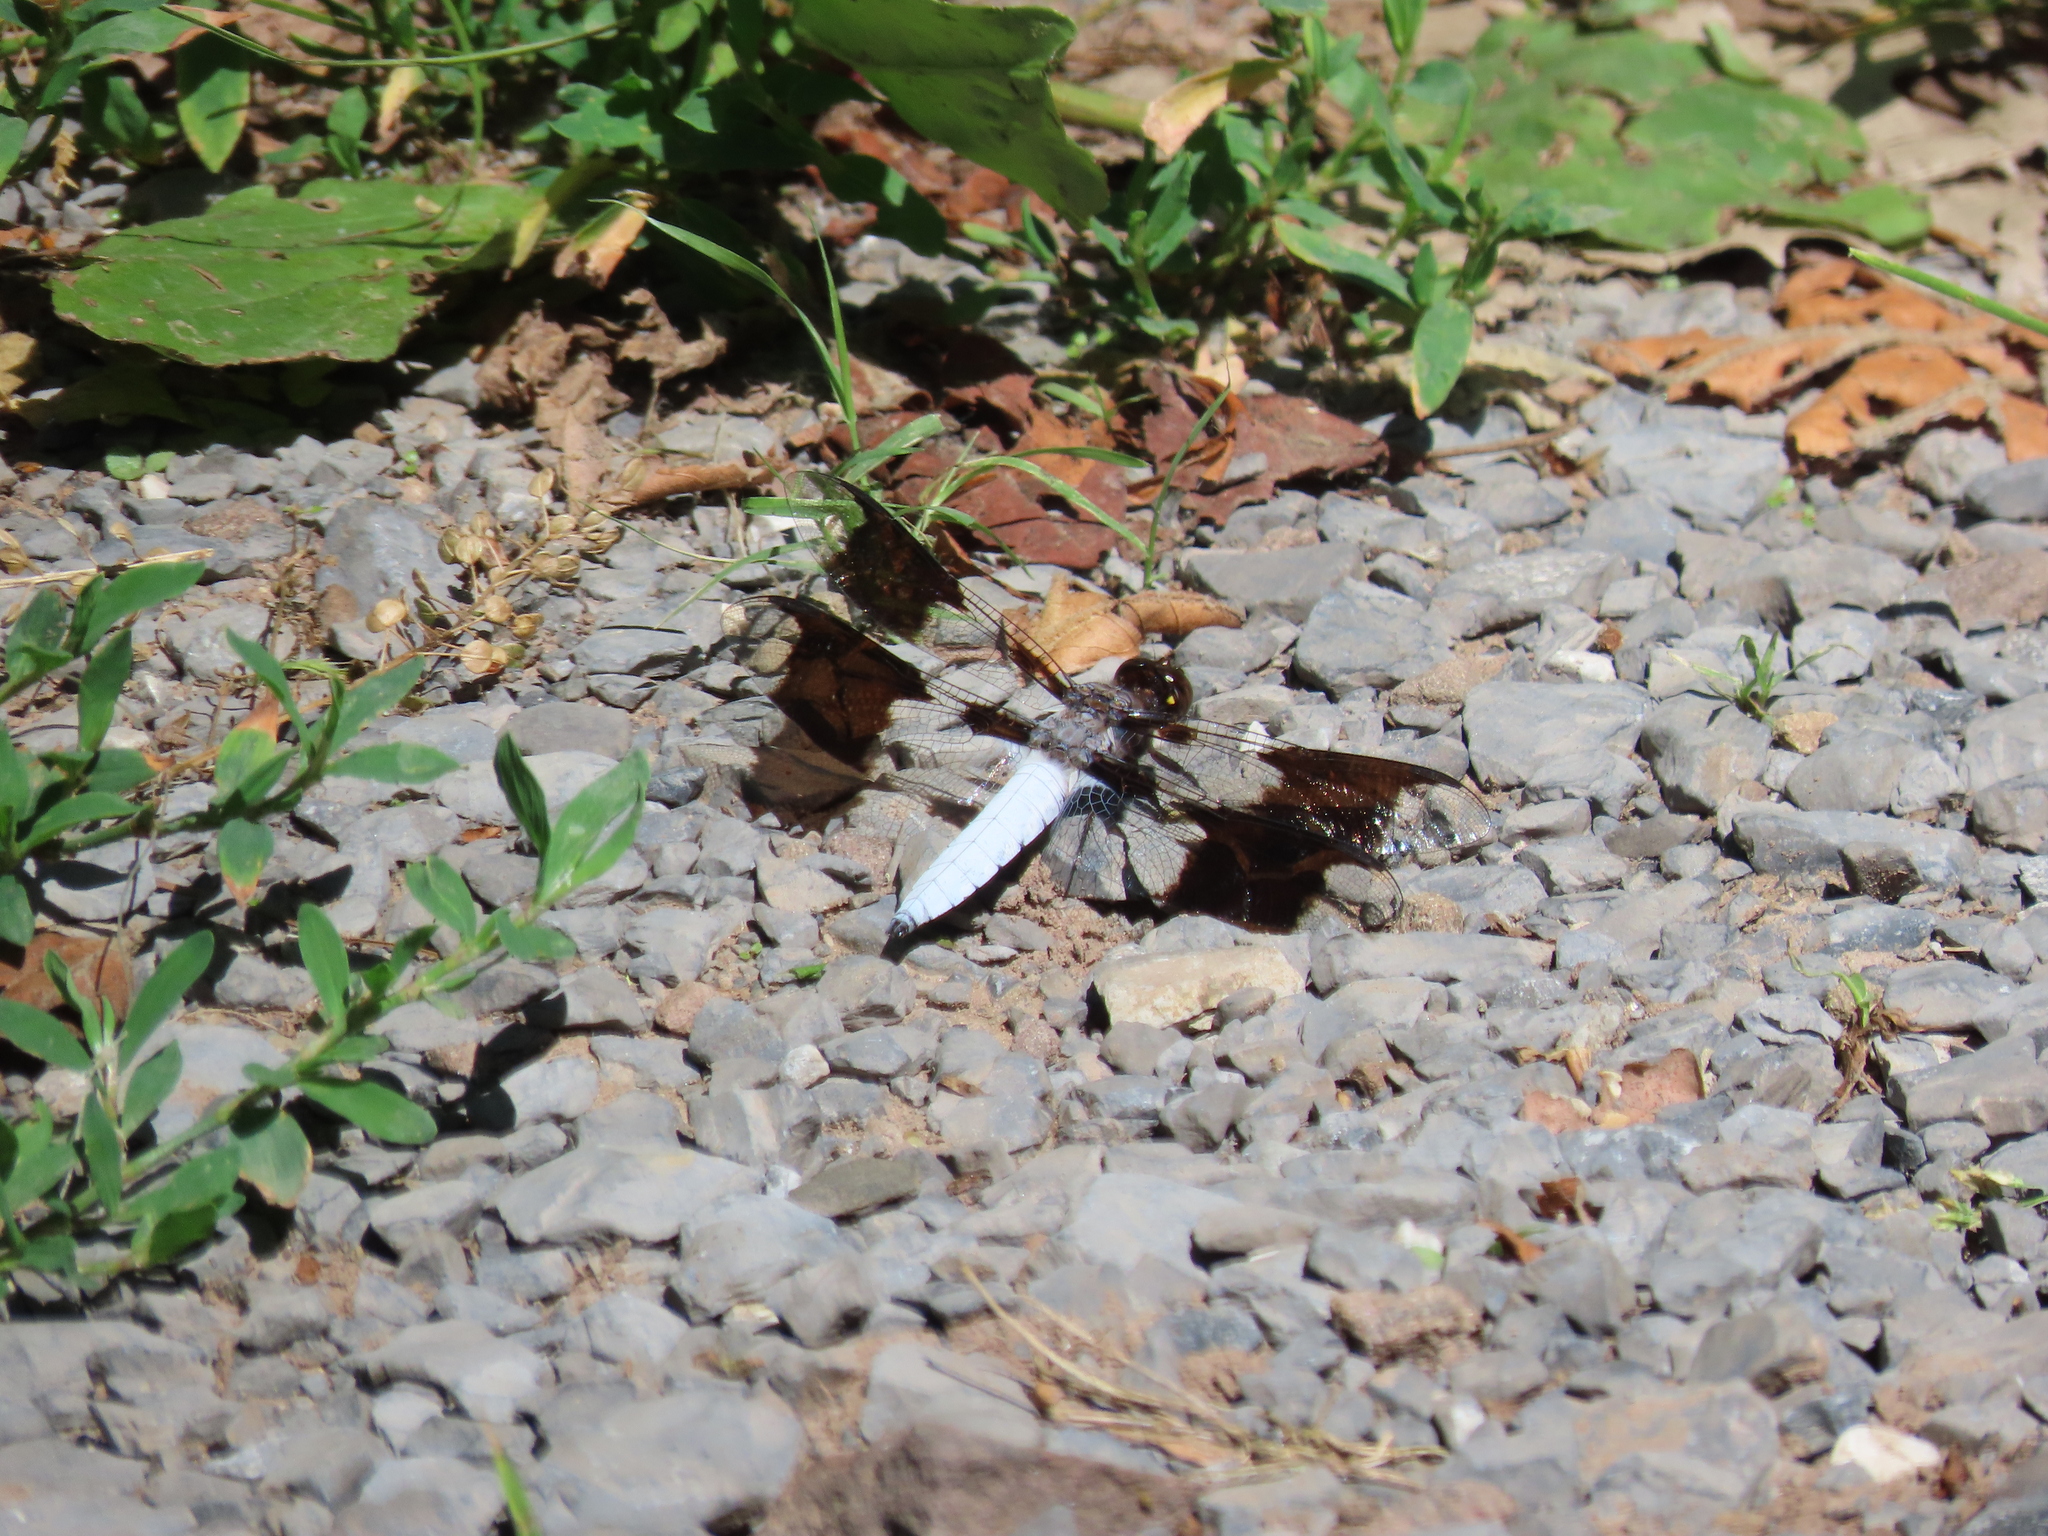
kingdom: Animalia
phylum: Arthropoda
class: Insecta
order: Odonata
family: Libellulidae
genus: Plathemis
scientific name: Plathemis lydia
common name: Common whitetail
